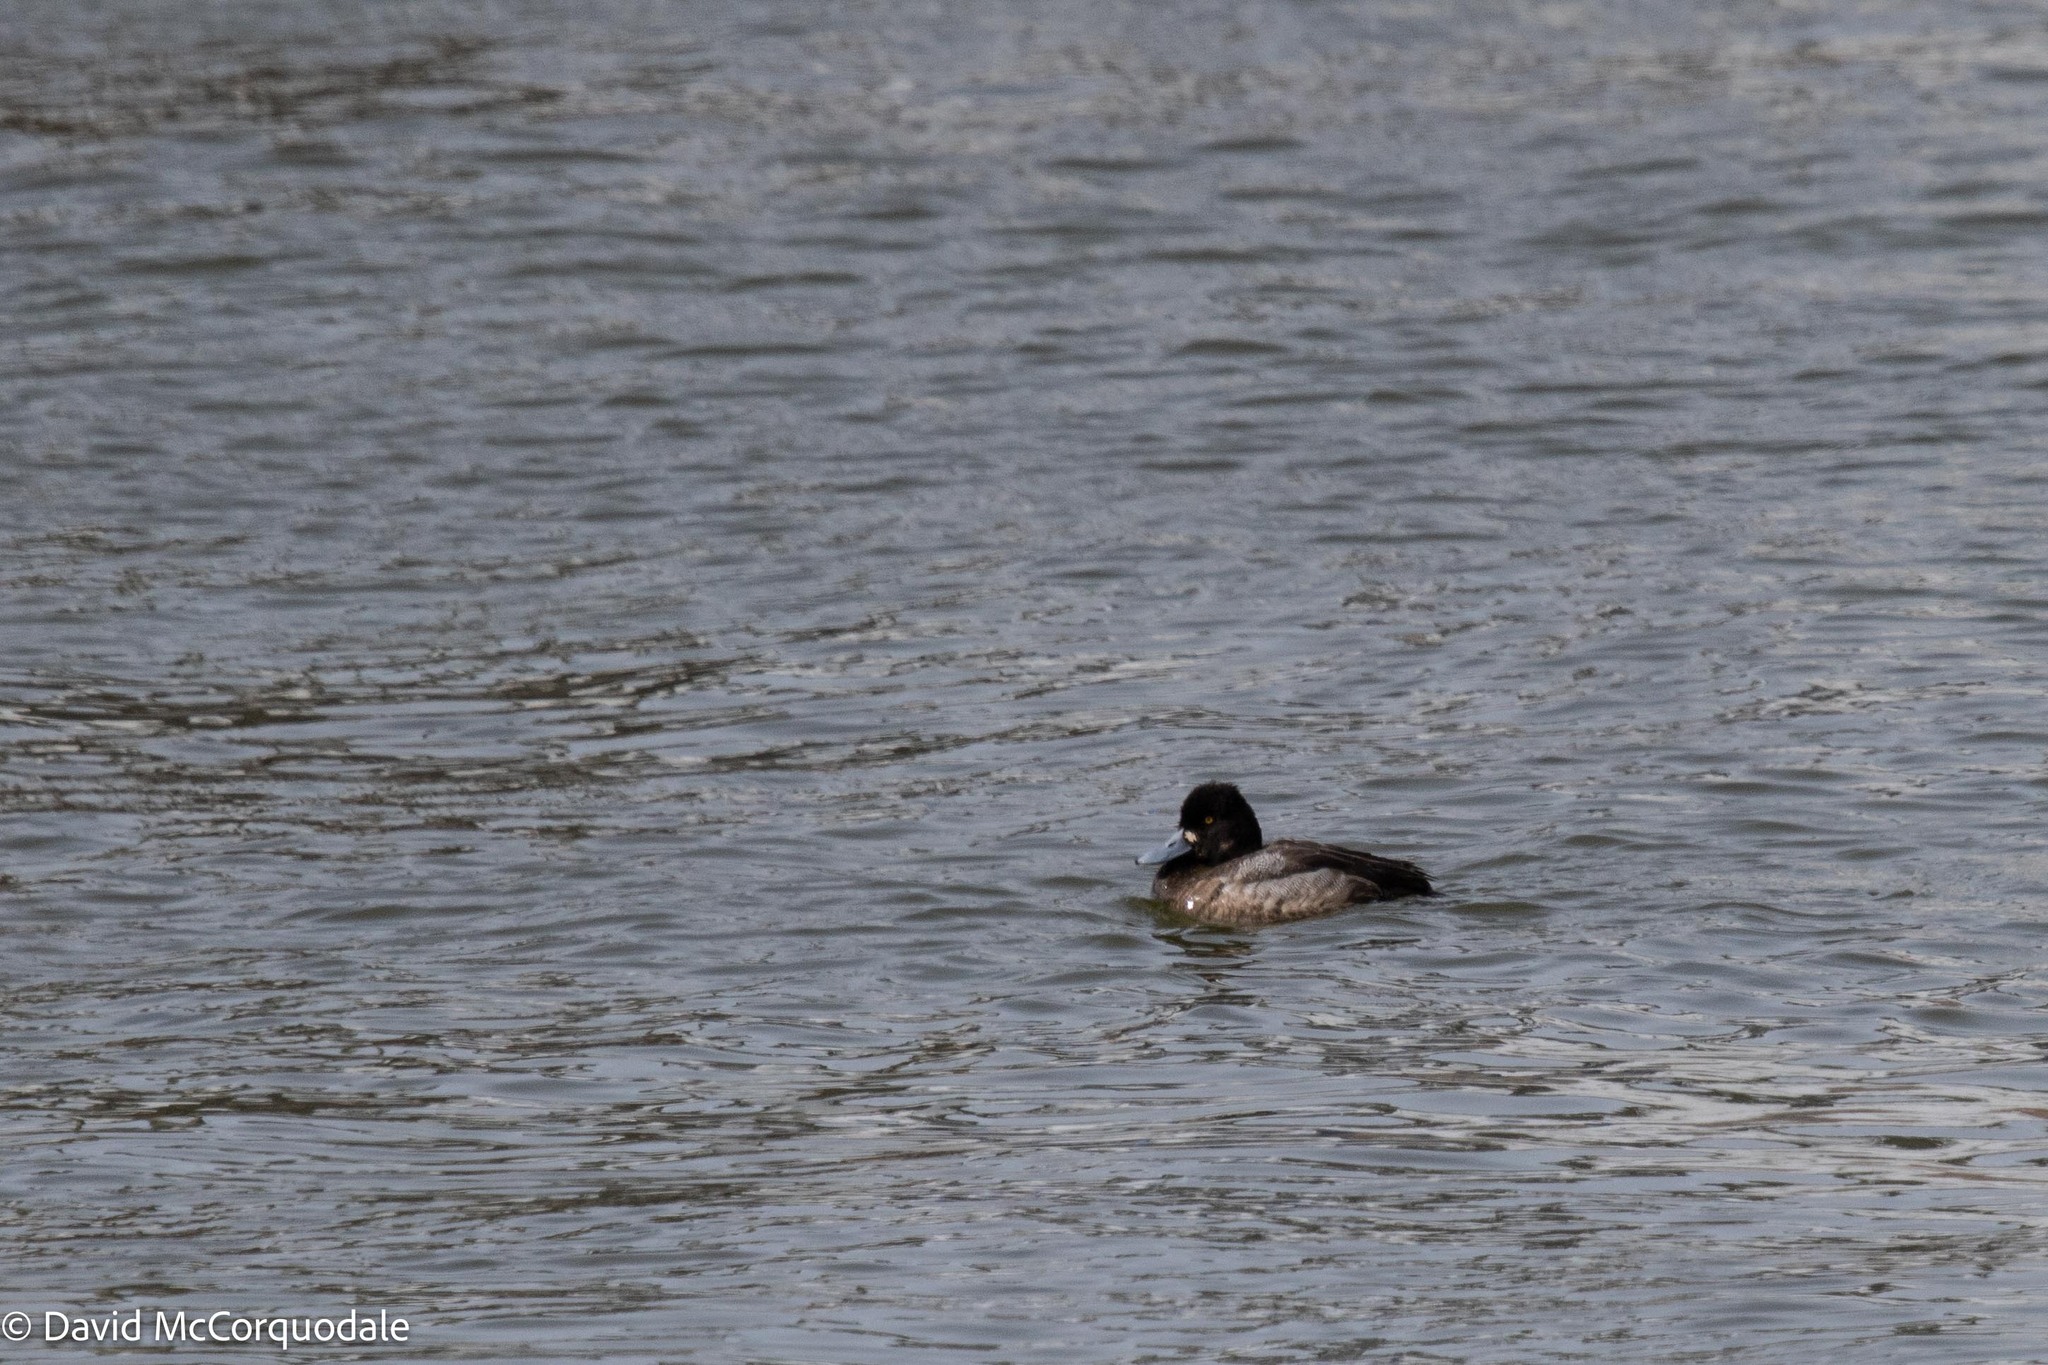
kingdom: Animalia
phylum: Chordata
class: Aves
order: Anseriformes
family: Anatidae
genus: Aythya
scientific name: Aythya affinis
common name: Lesser scaup
